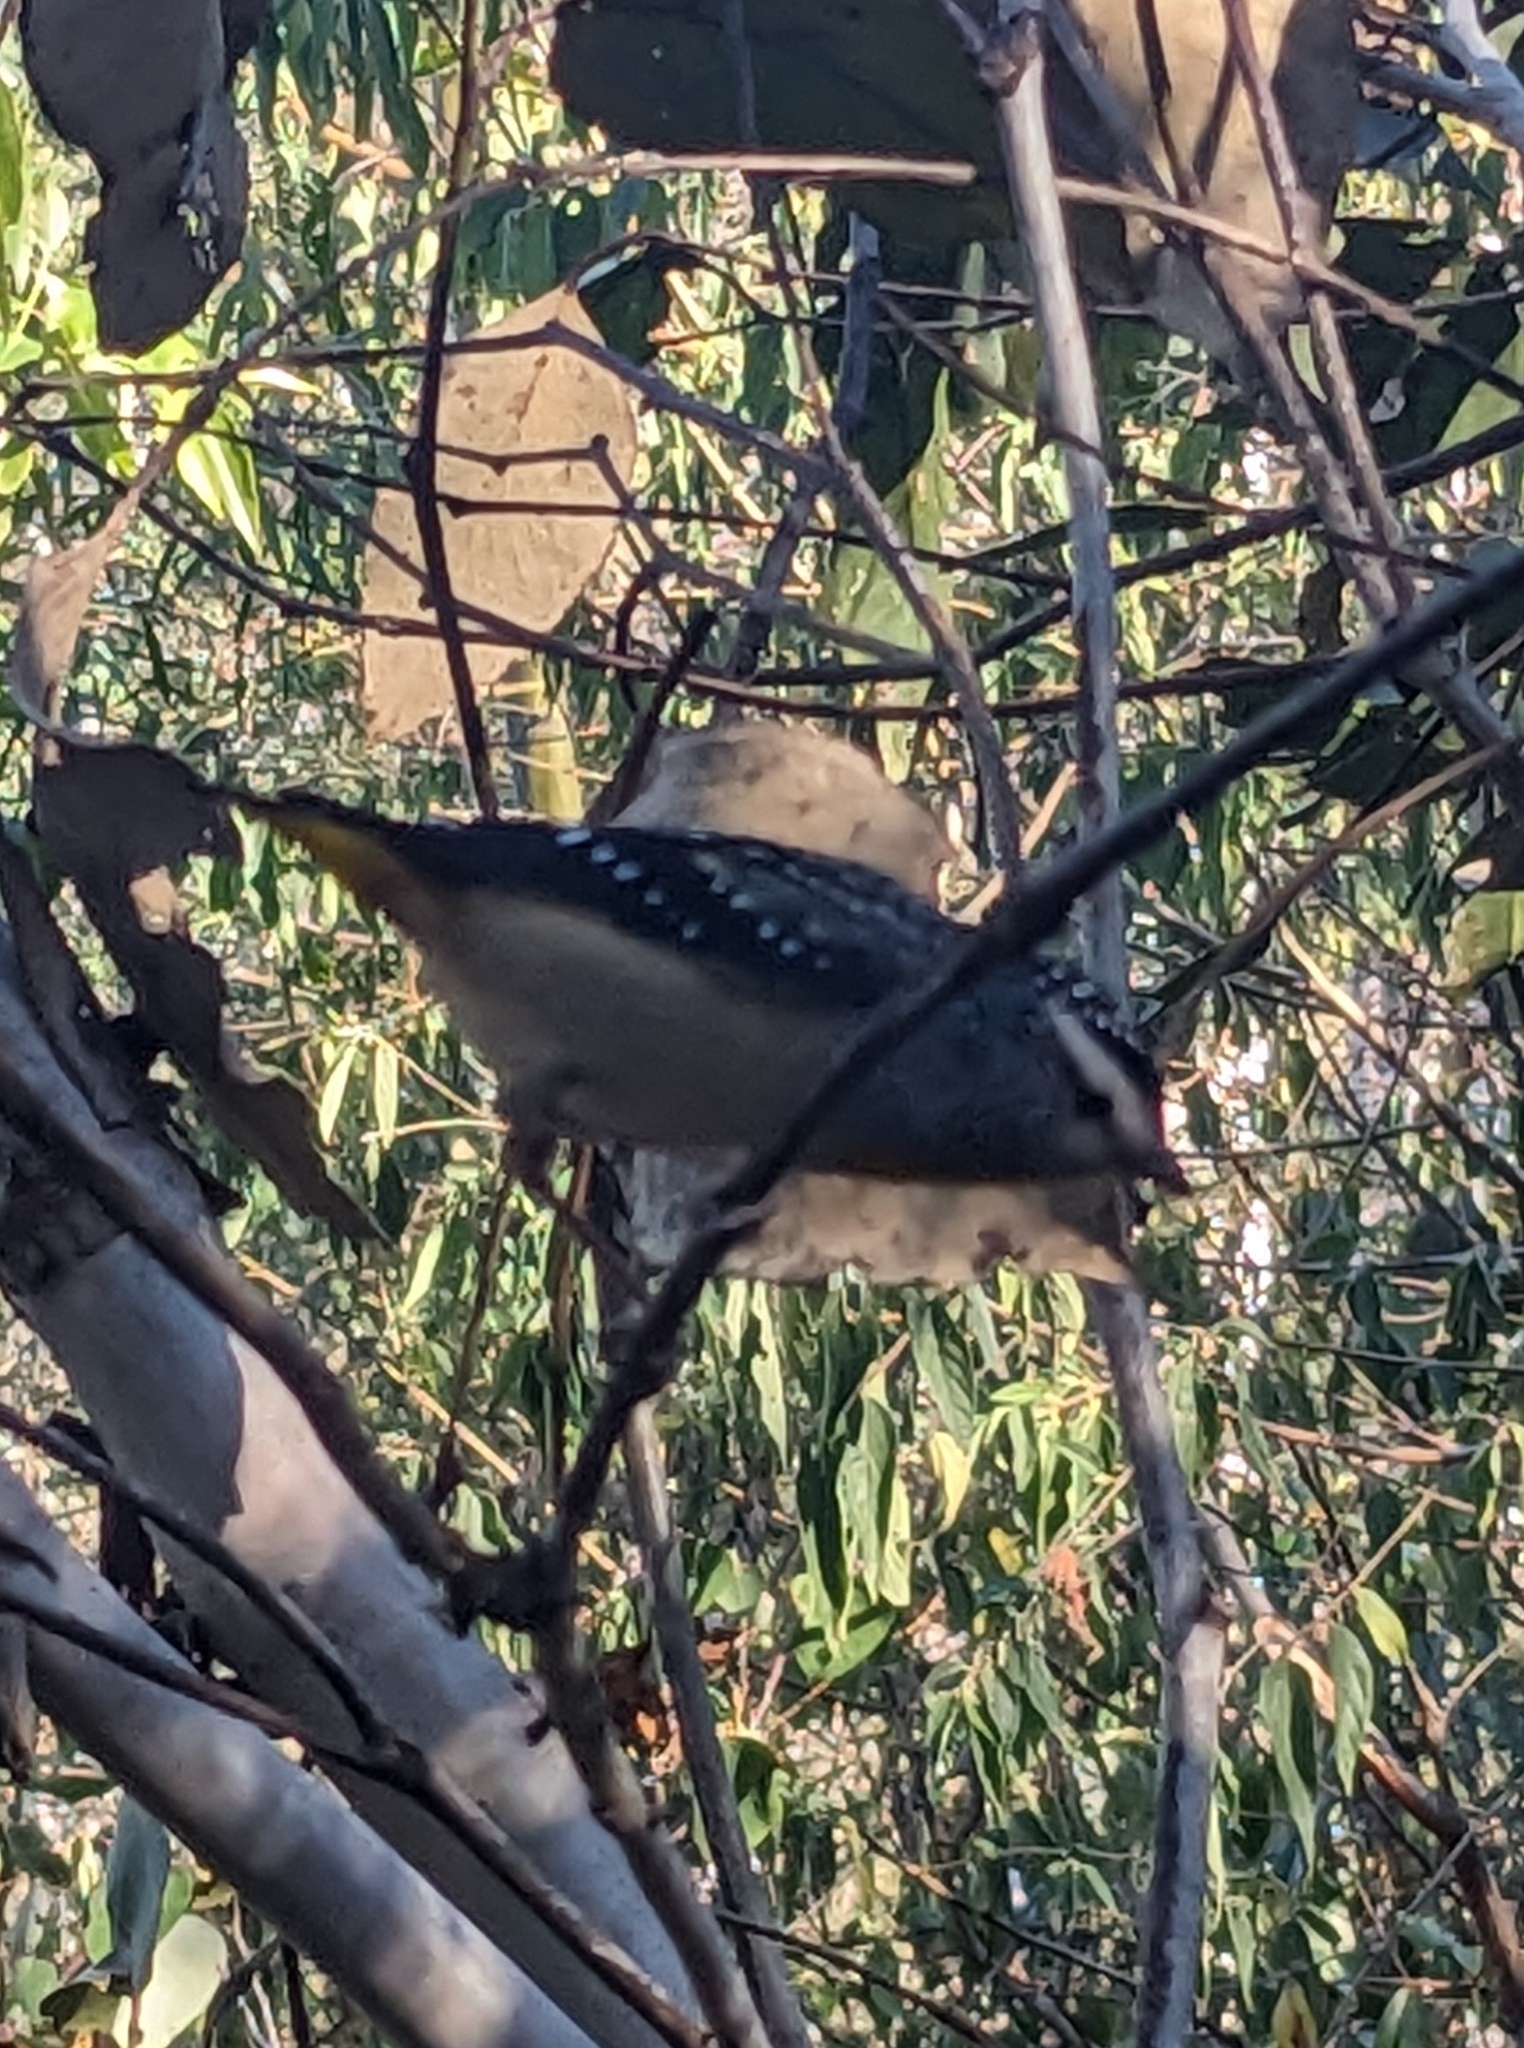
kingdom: Animalia
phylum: Chordata
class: Aves
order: Passeriformes
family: Pardalotidae
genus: Pardalotus
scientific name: Pardalotus punctatus
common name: Spotted pardalote
